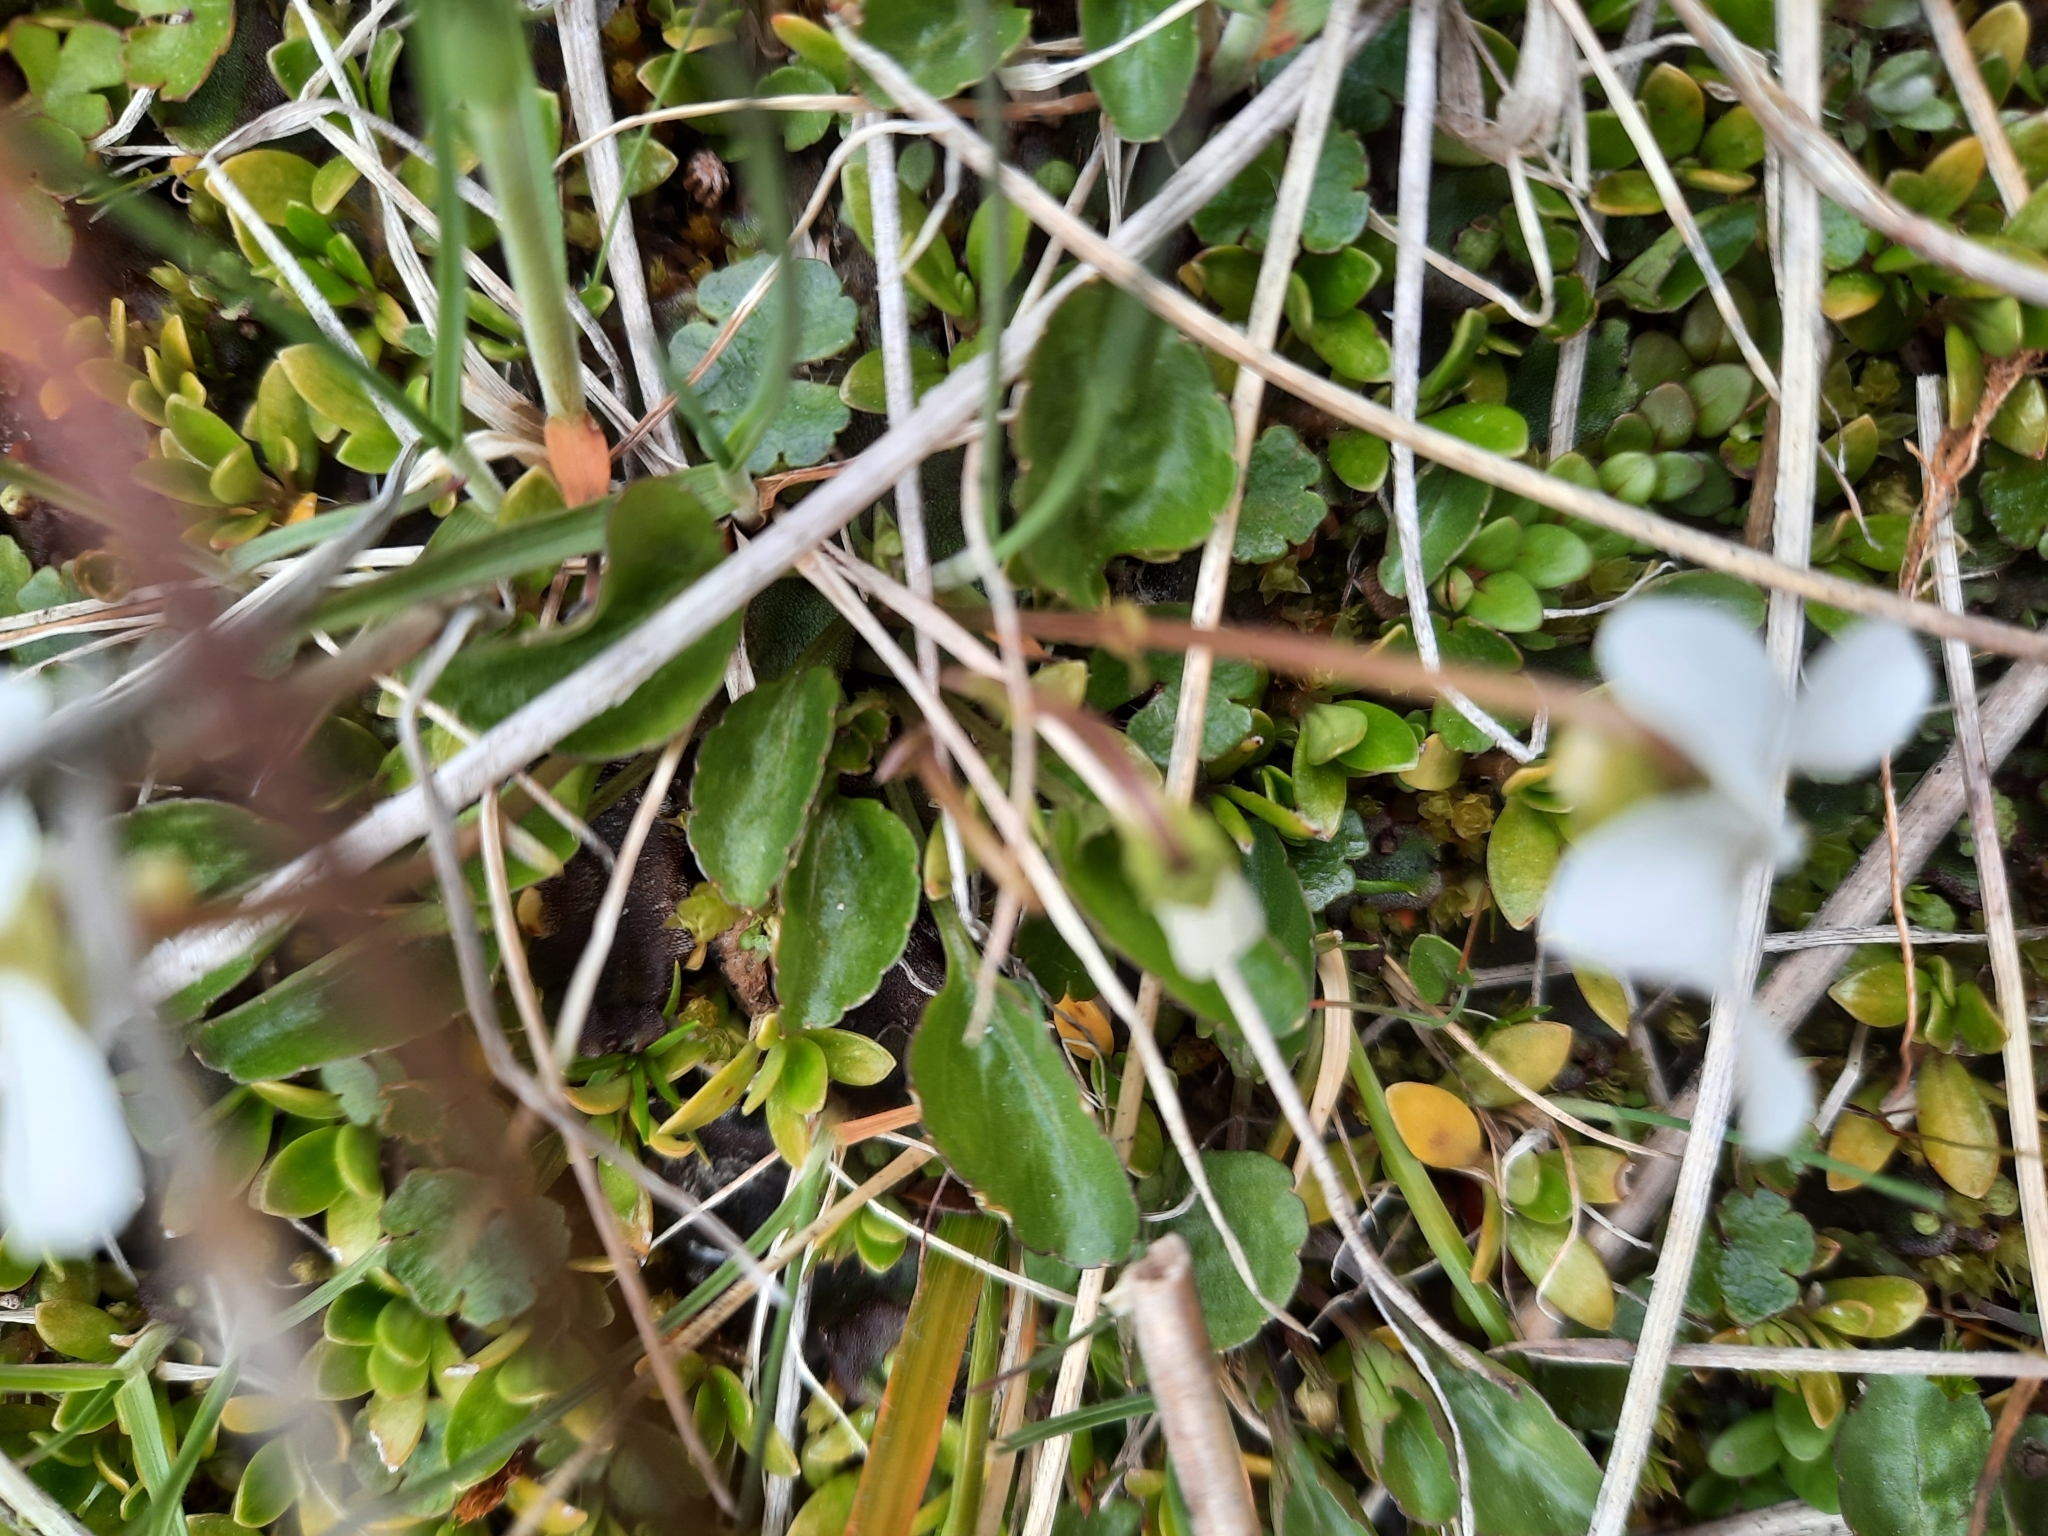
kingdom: Plantae
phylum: Tracheophyta
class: Magnoliopsida
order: Malpighiales
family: Violaceae
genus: Viola
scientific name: Viola cunninghamii
